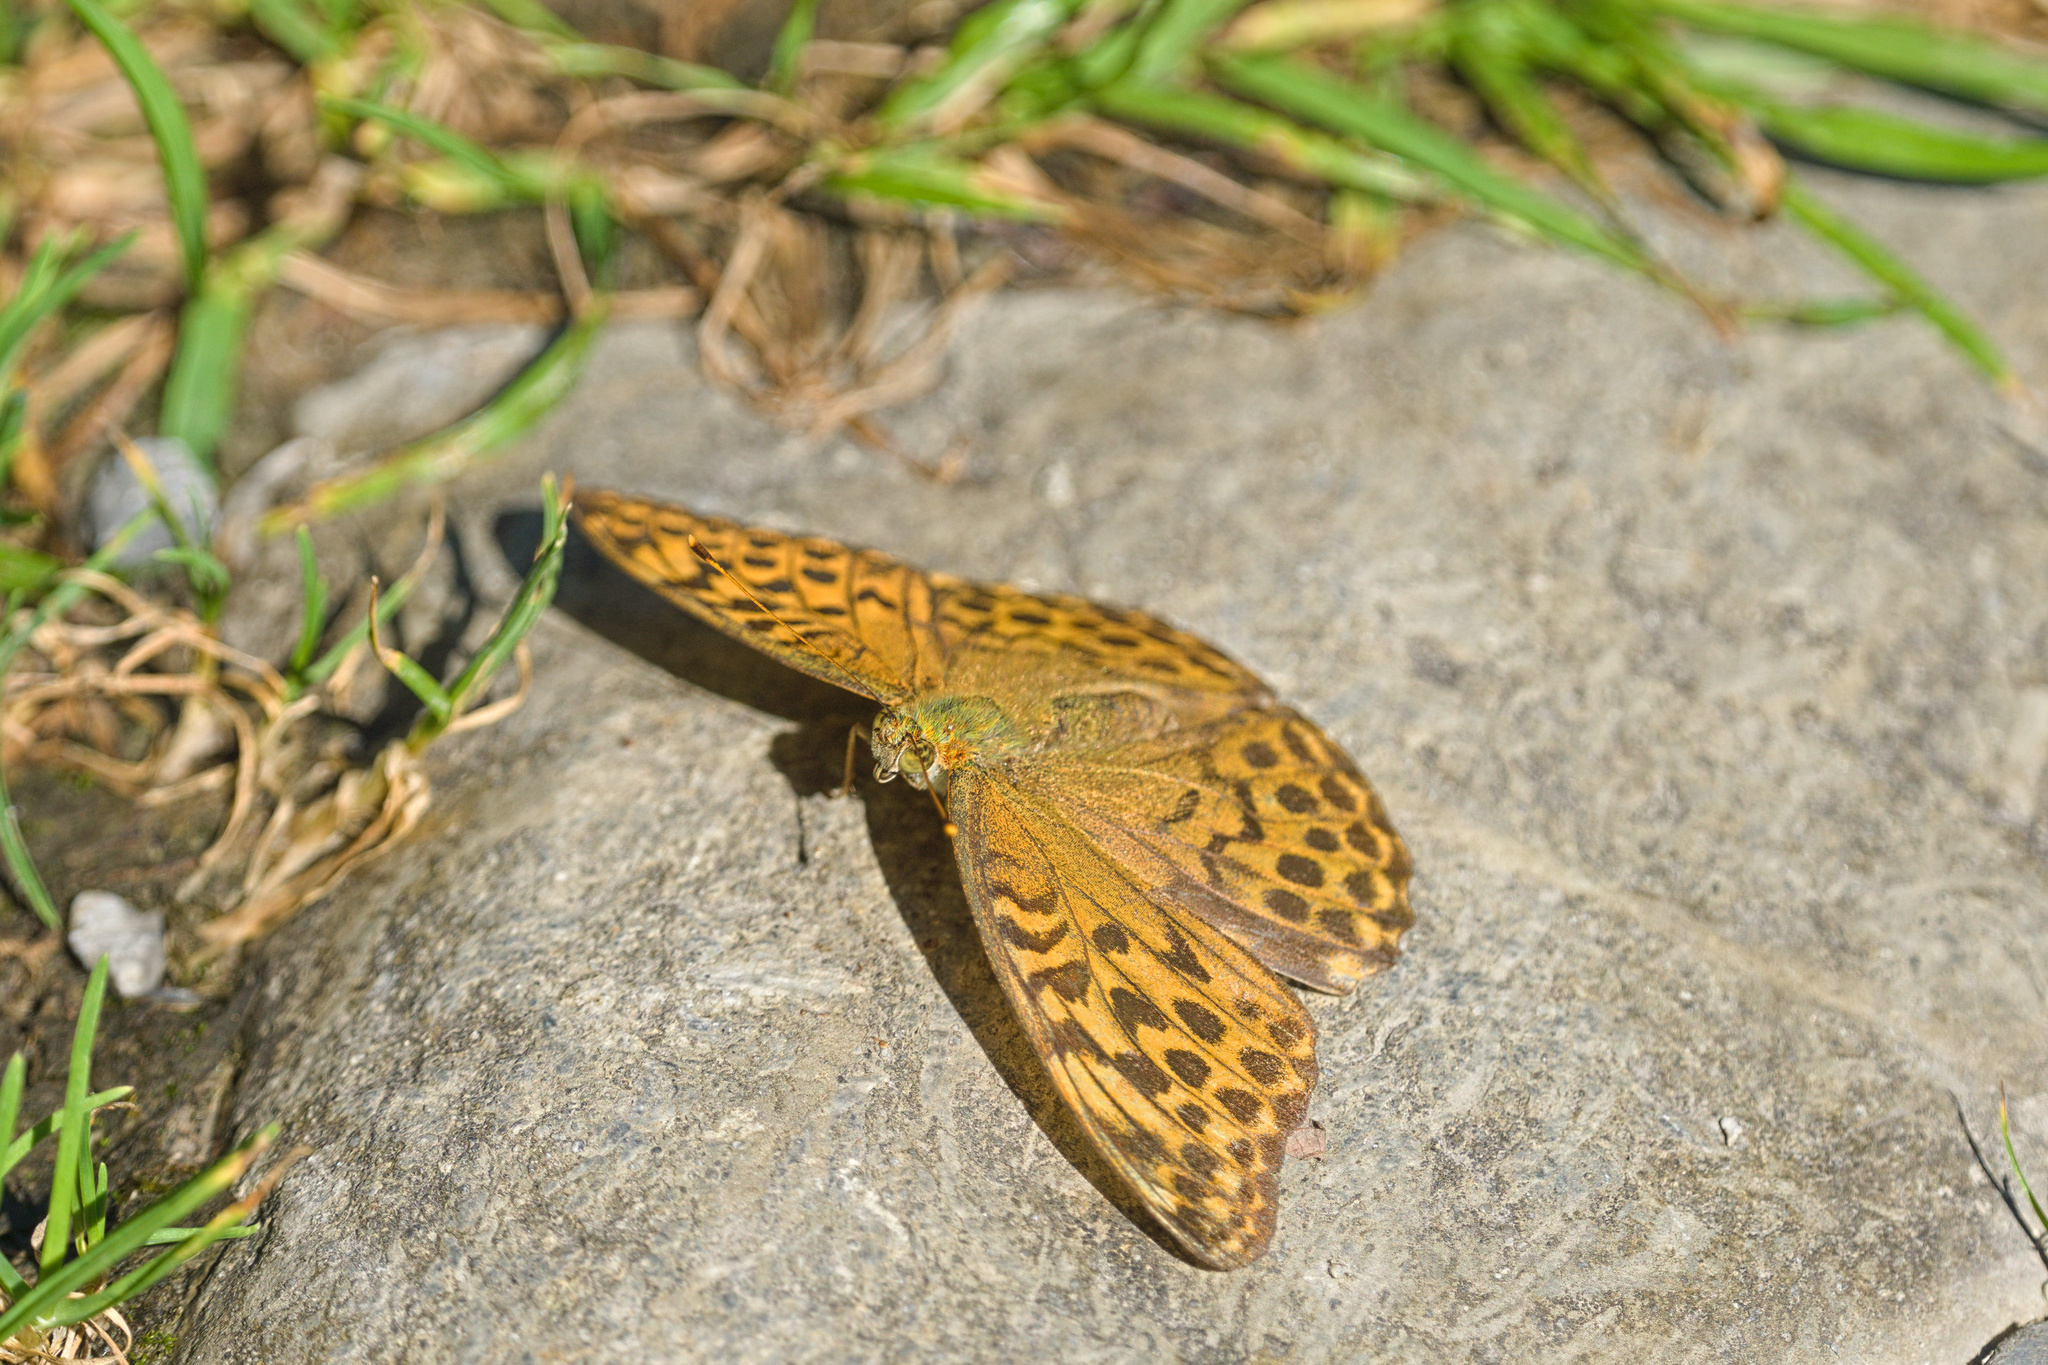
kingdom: Animalia
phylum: Arthropoda
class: Insecta
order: Lepidoptera
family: Nymphalidae
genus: Argynnis
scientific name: Argynnis paphia
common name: Silver-washed fritillary
